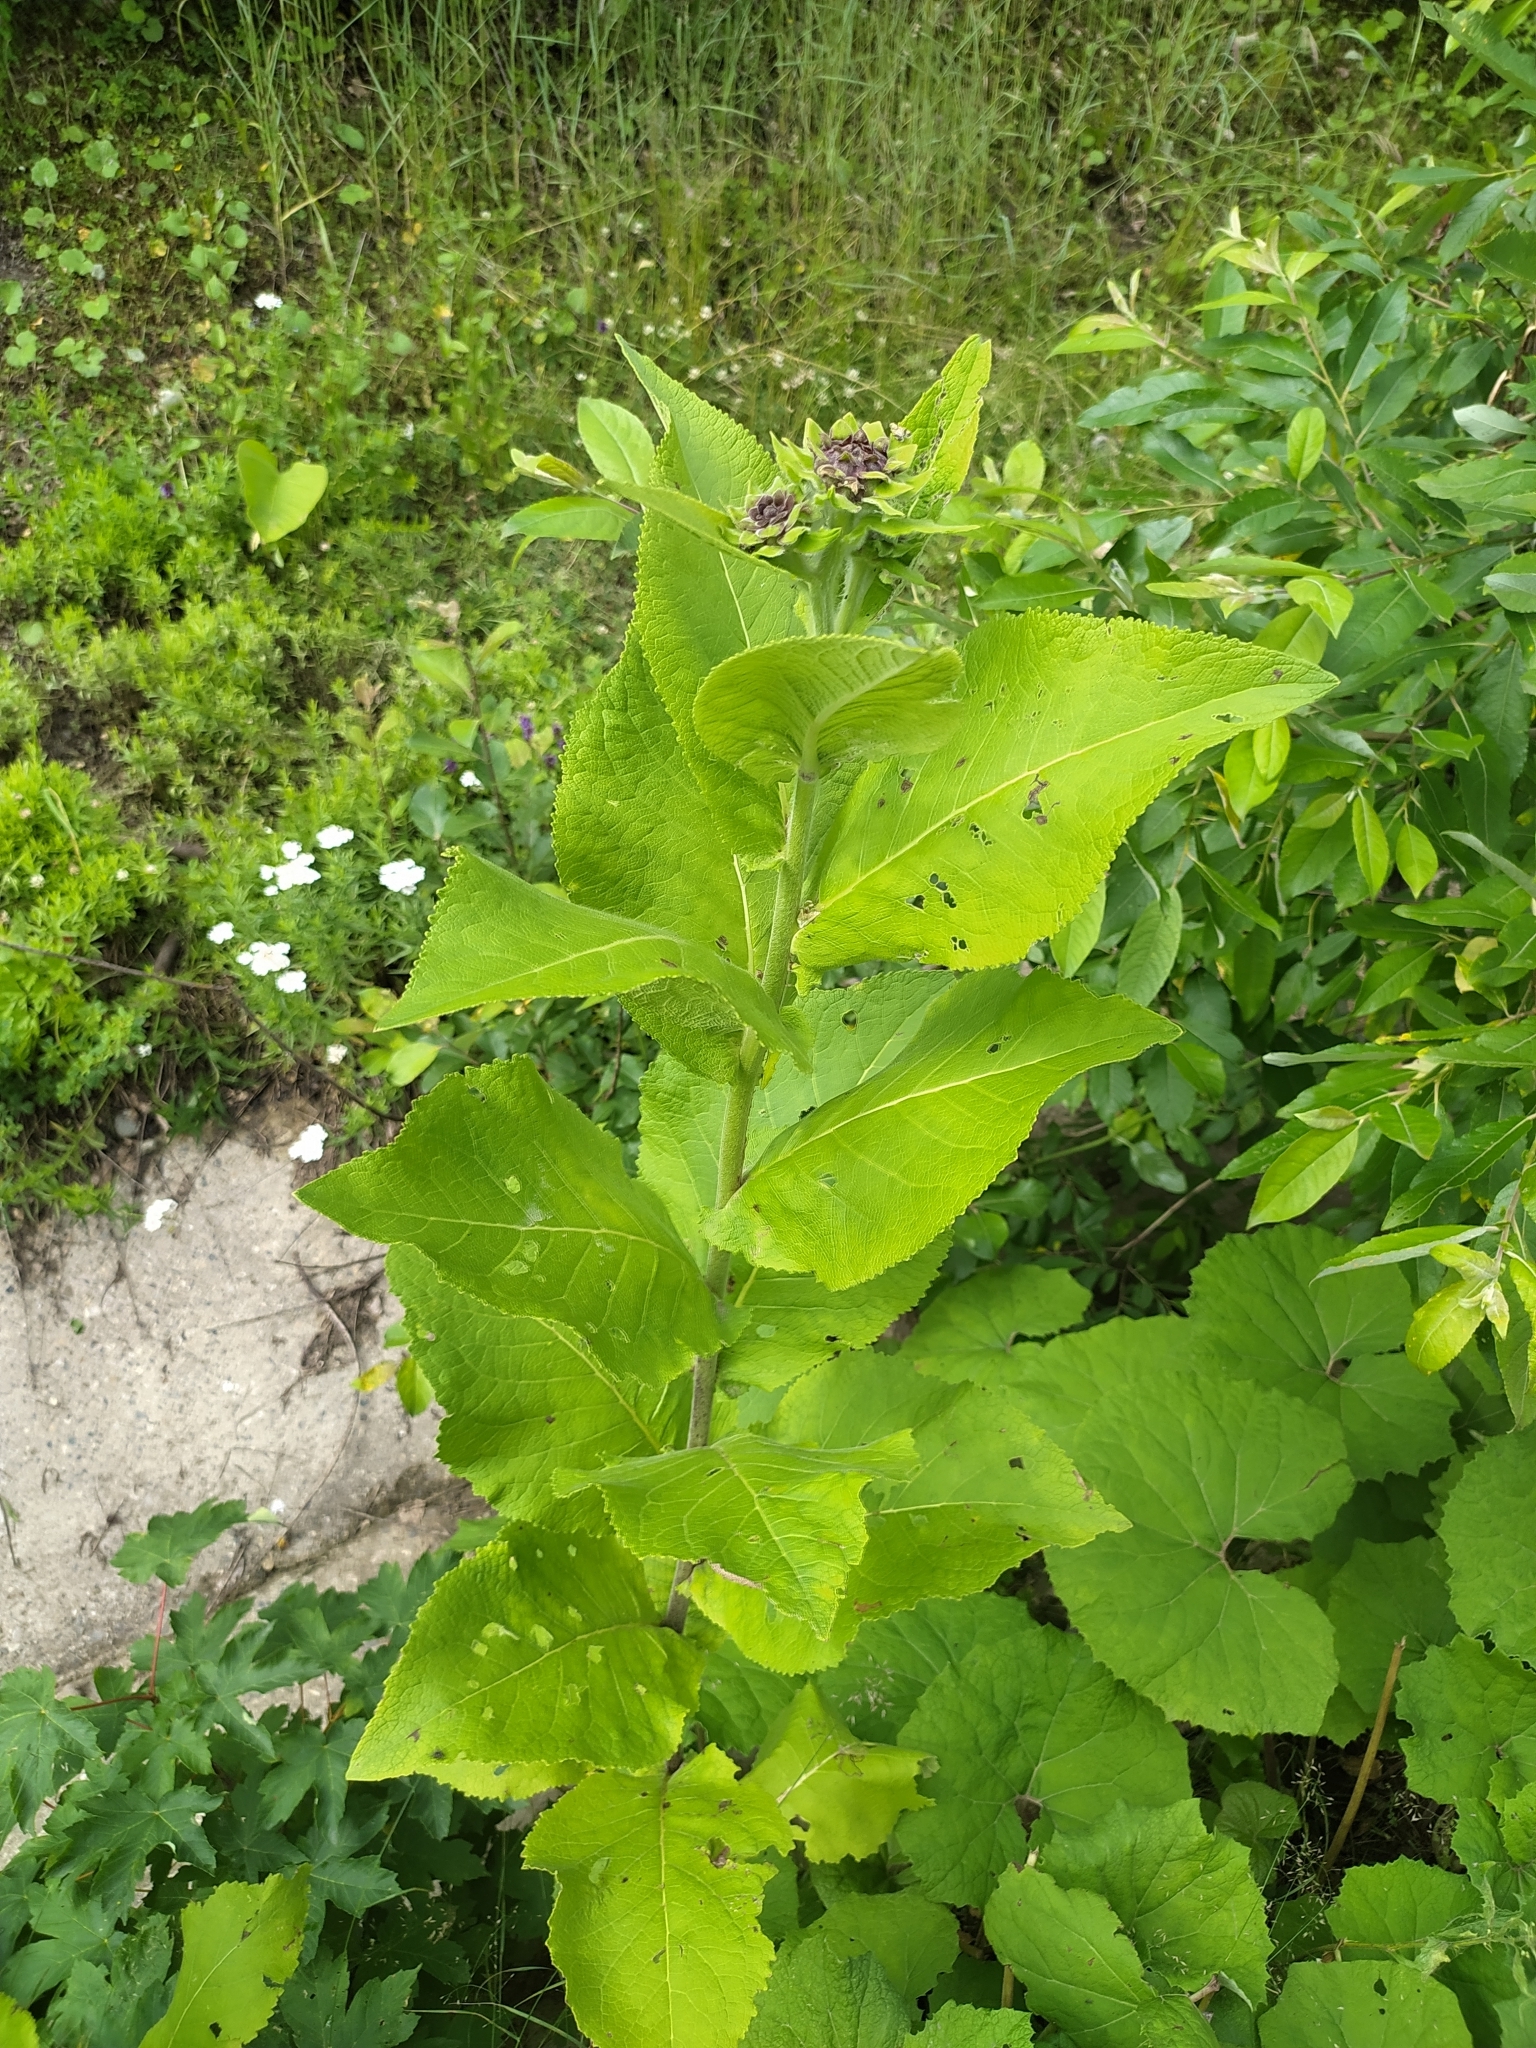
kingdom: Plantae
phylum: Tracheophyta
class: Magnoliopsida
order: Asterales
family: Asteraceae
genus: Inula
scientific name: Inula magnifica
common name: Giant fleabane
